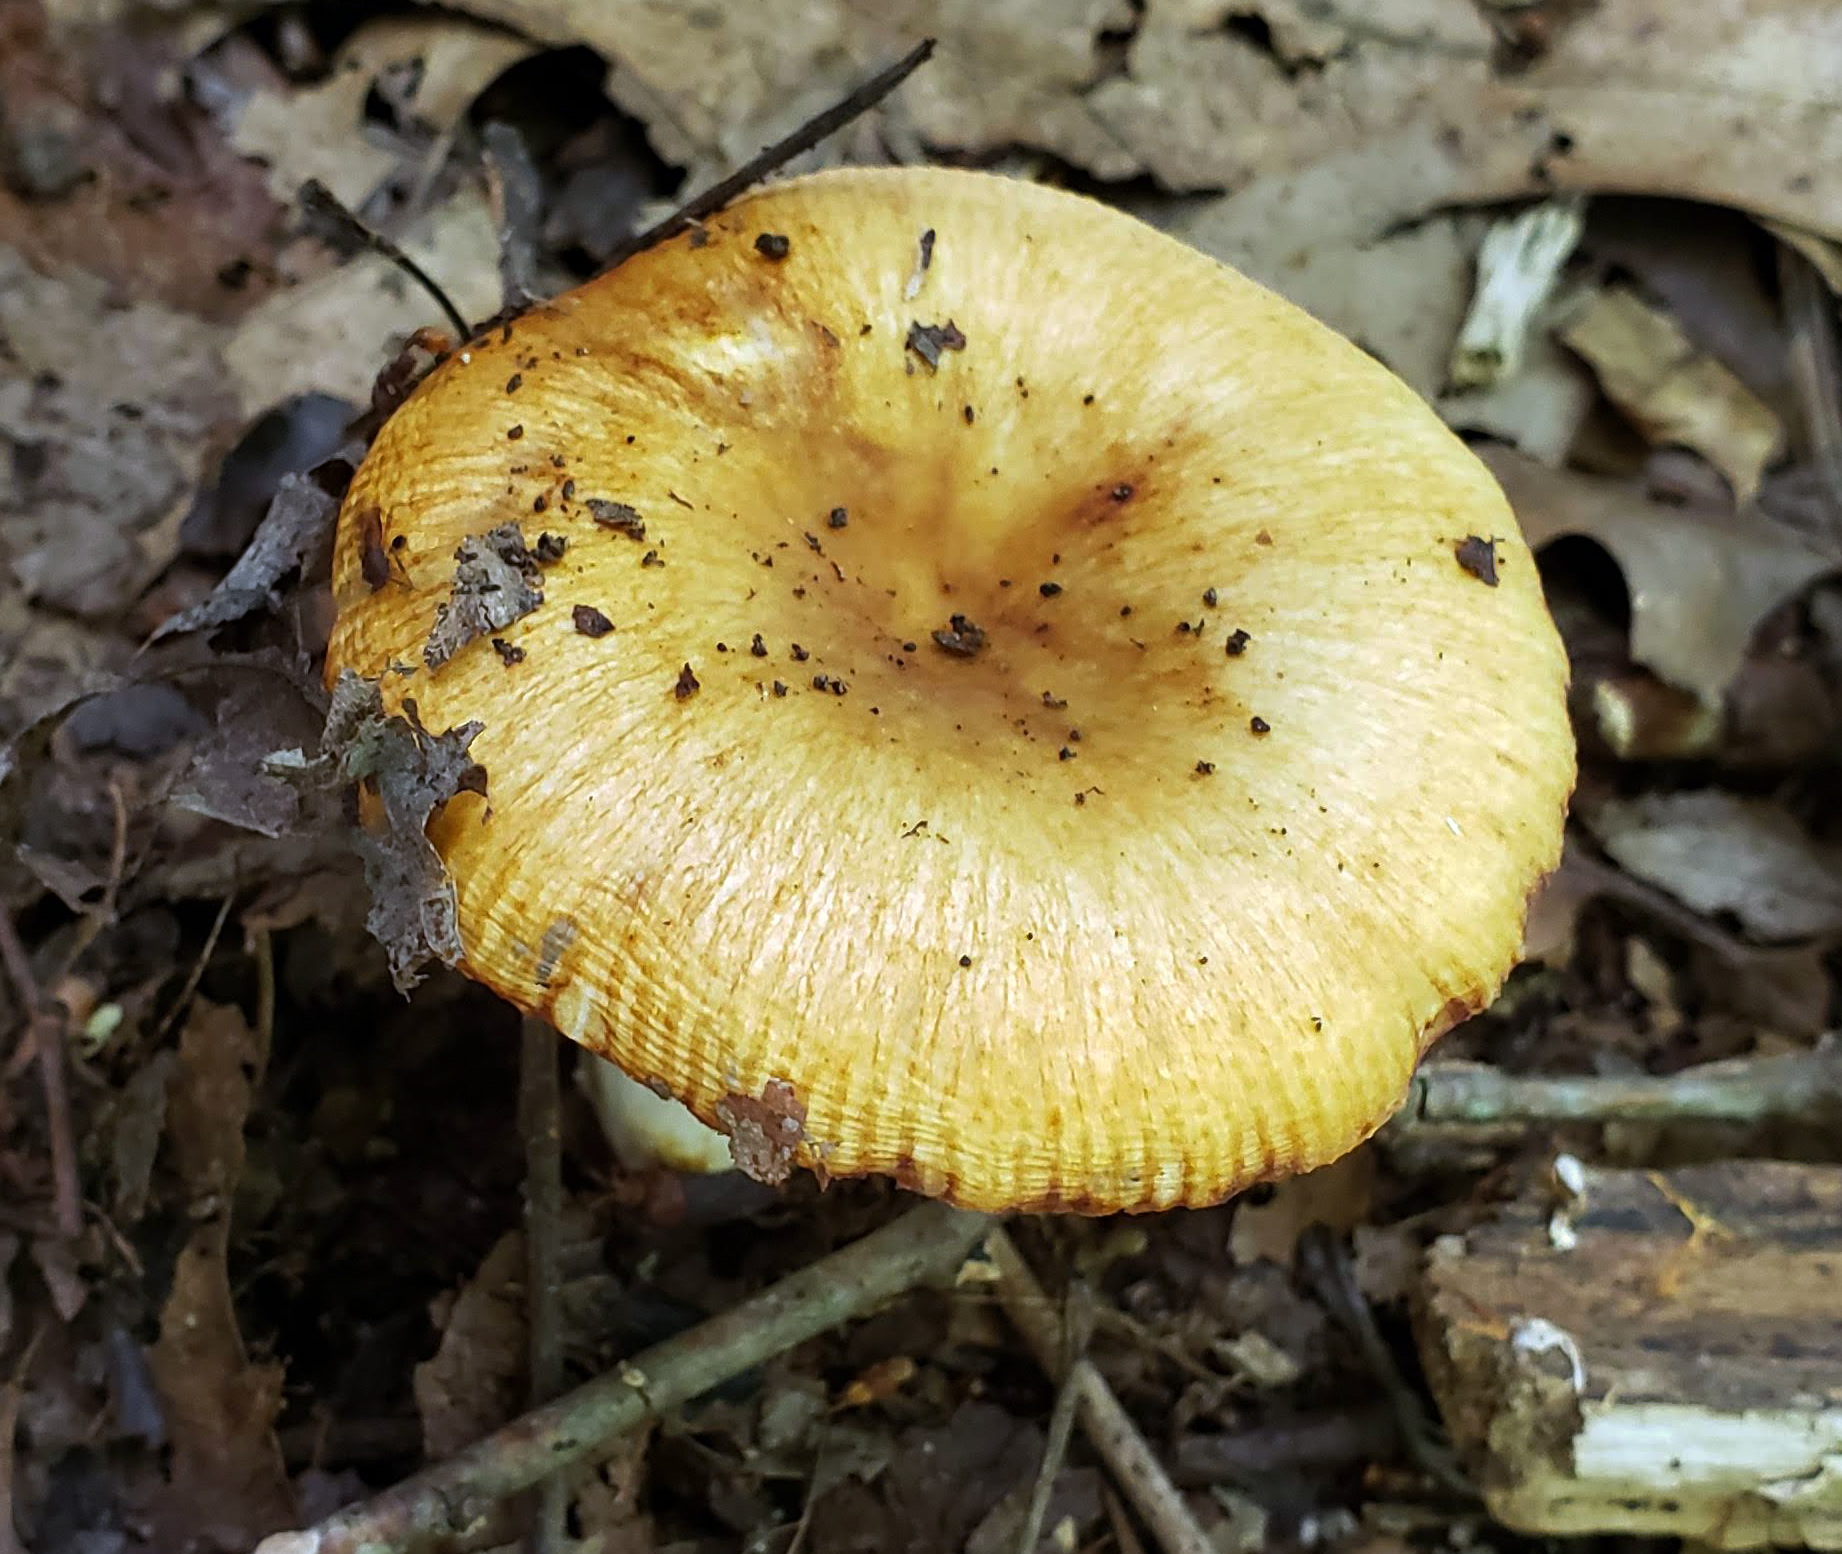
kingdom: Fungi
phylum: Basidiomycota
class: Agaricomycetes
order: Russulales
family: Russulaceae
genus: Russula
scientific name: Russula
